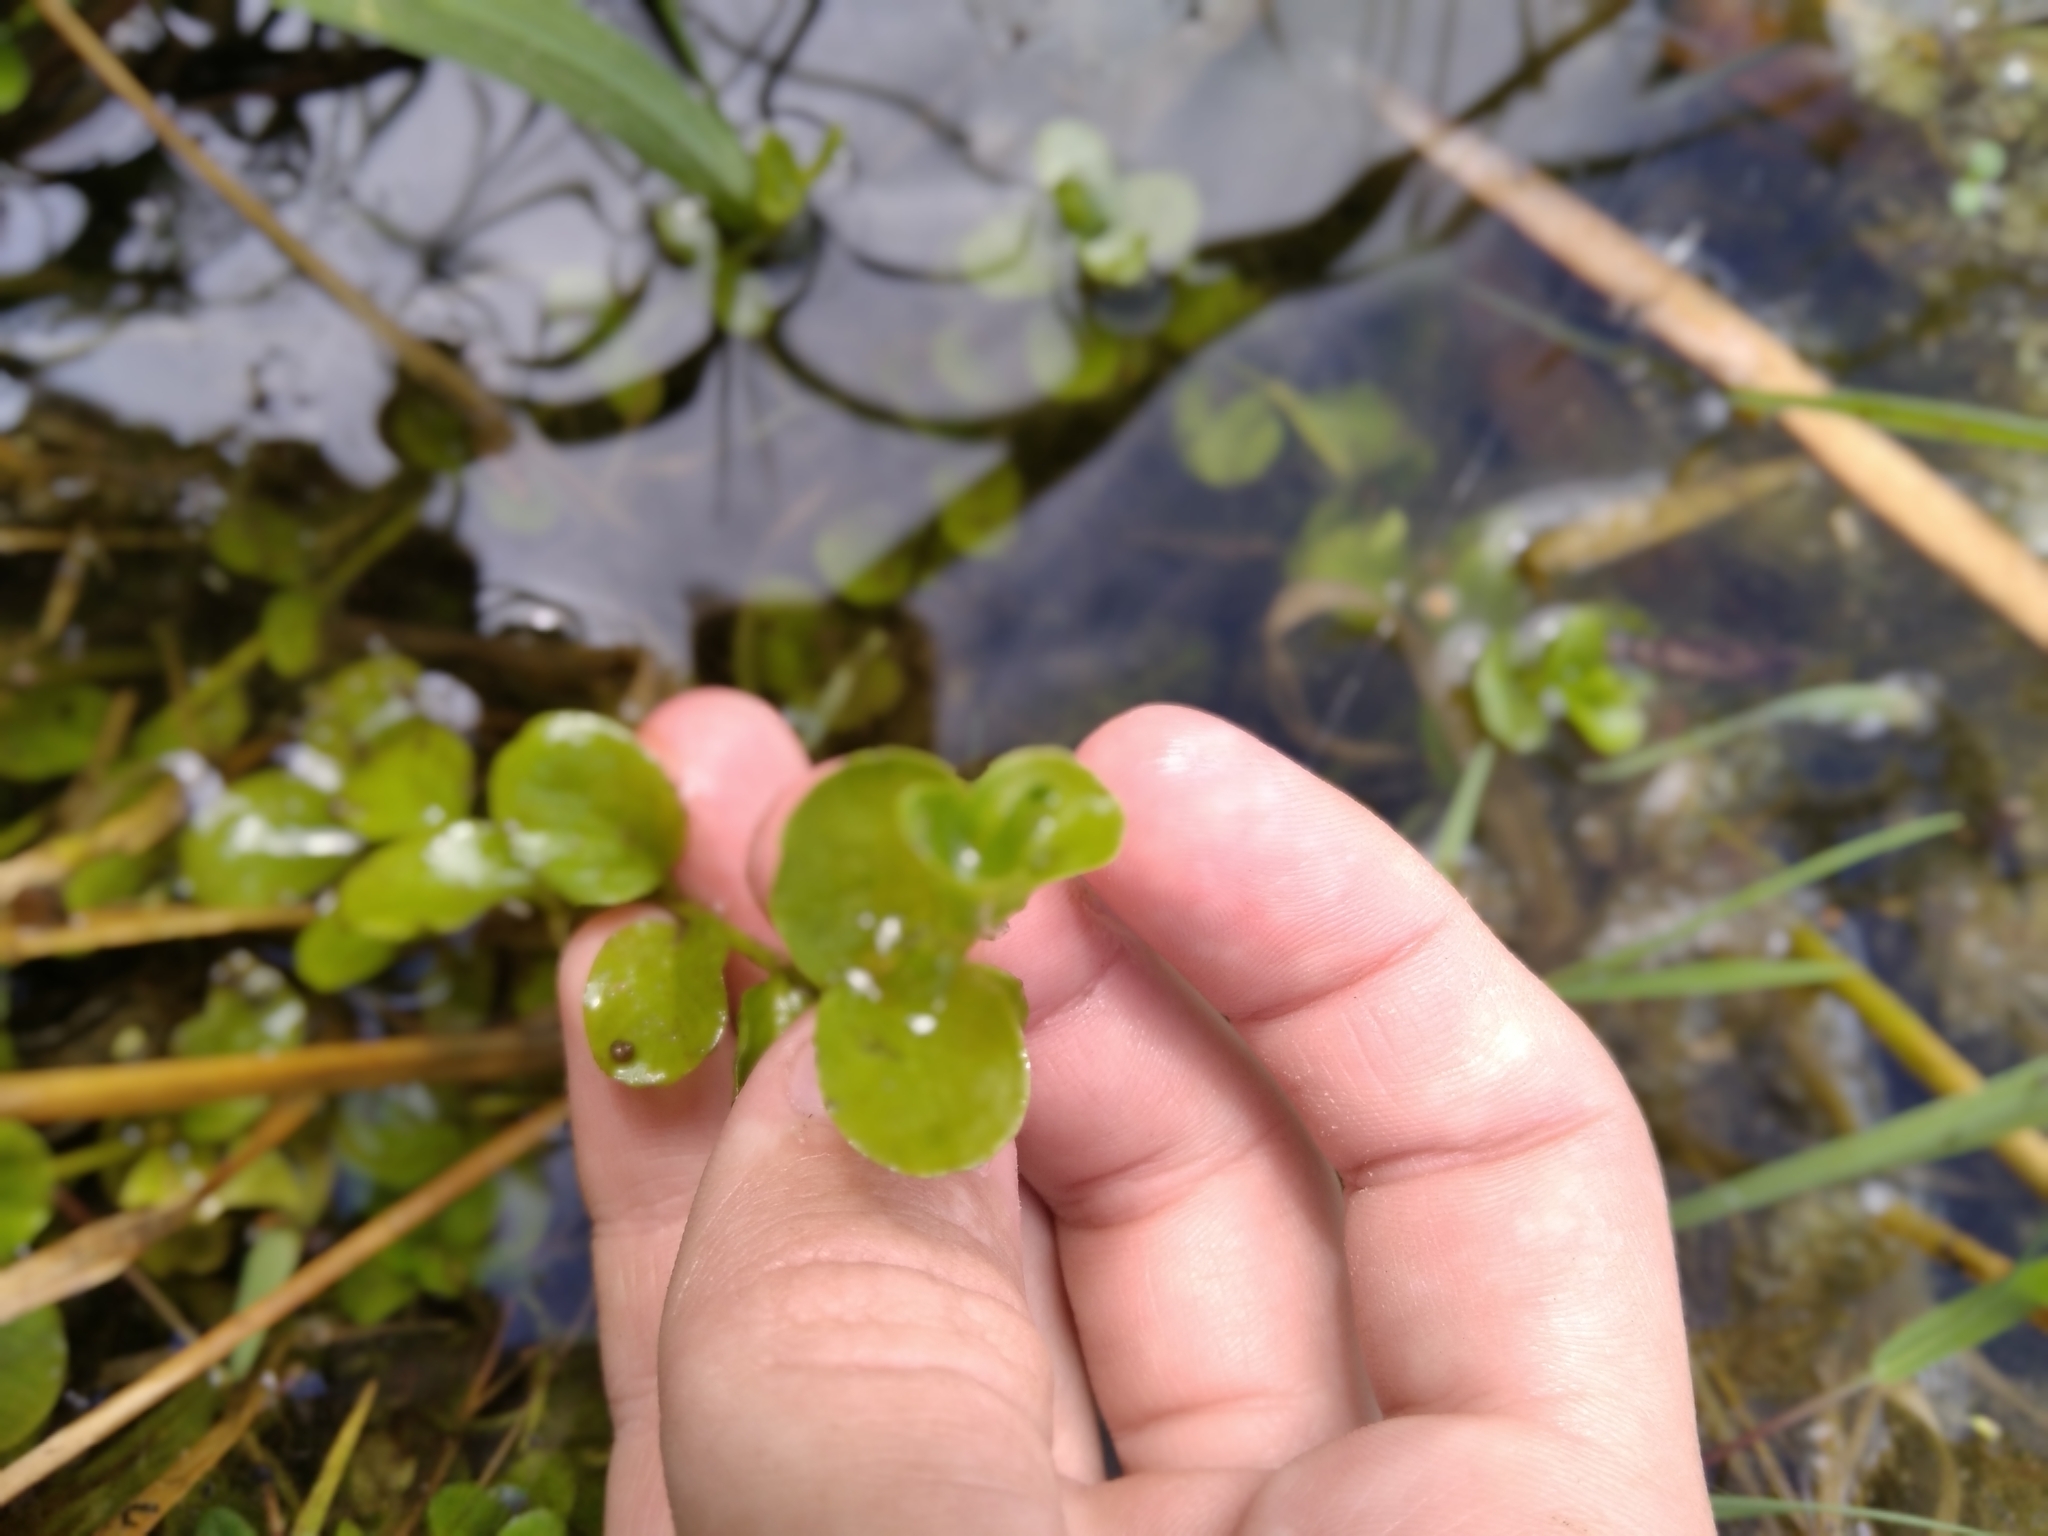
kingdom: Plantae
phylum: Tracheophyta
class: Magnoliopsida
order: Ericales
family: Primulaceae
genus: Lysimachia
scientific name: Lysimachia nummularia
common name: Moneywort
